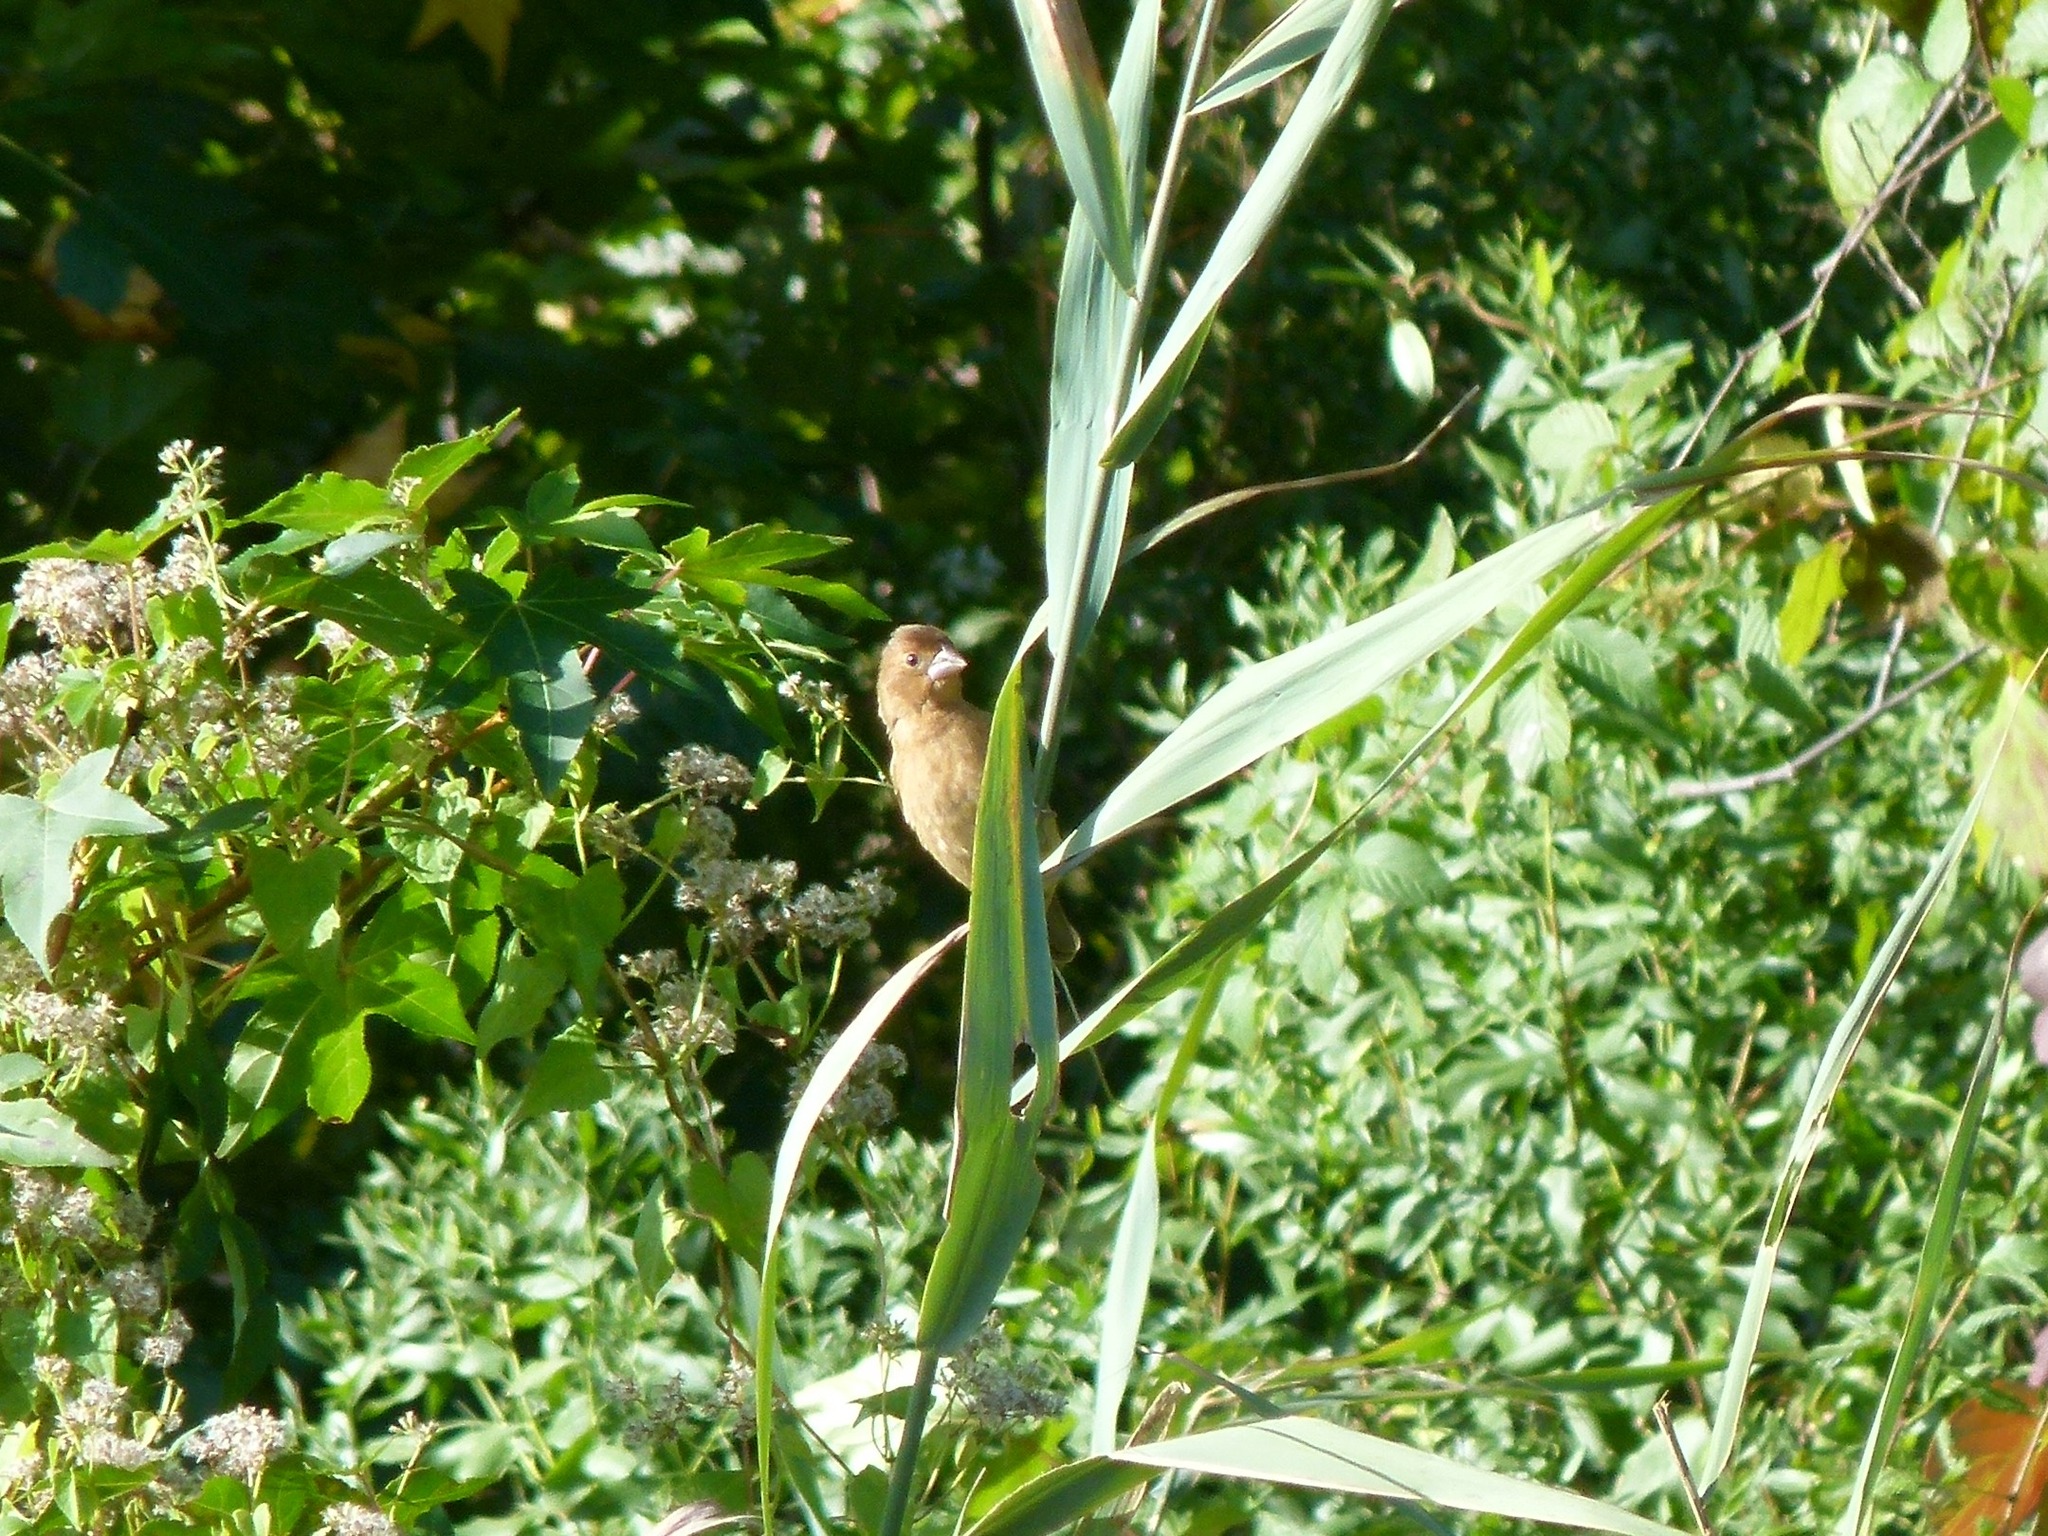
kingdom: Animalia
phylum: Chordata
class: Aves
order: Passeriformes
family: Cardinalidae
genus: Passerina
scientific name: Passerina cyanea
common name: Indigo bunting
